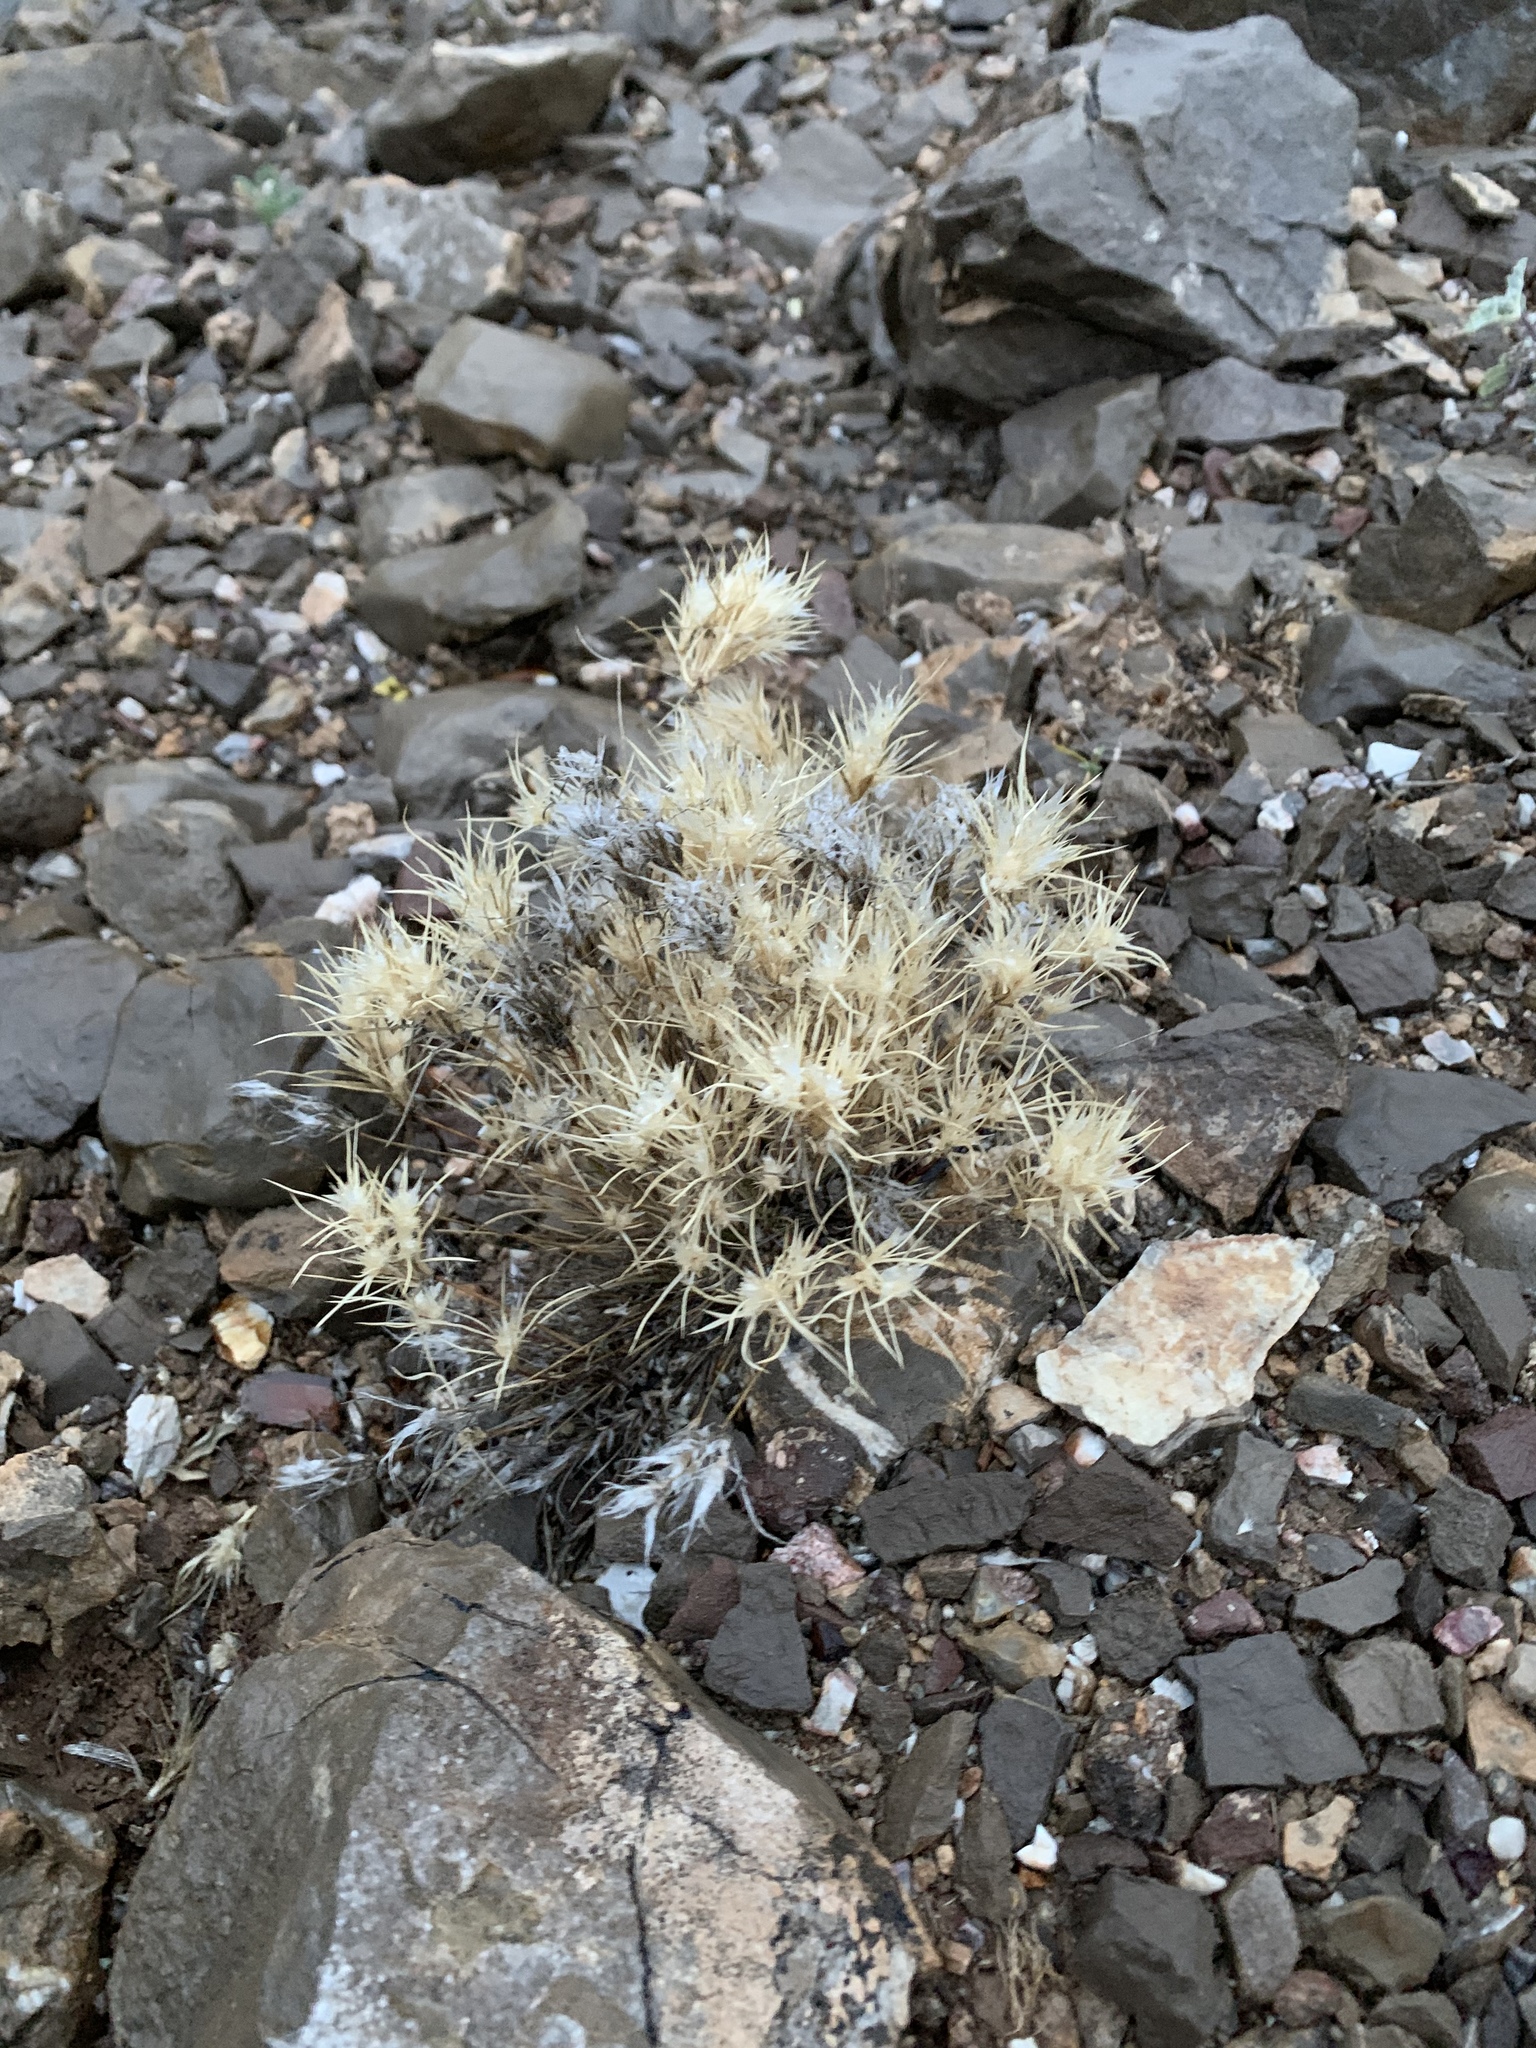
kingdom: Plantae
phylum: Tracheophyta
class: Liliopsida
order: Poales
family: Poaceae
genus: Dasyochloa
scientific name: Dasyochloa pulchella
